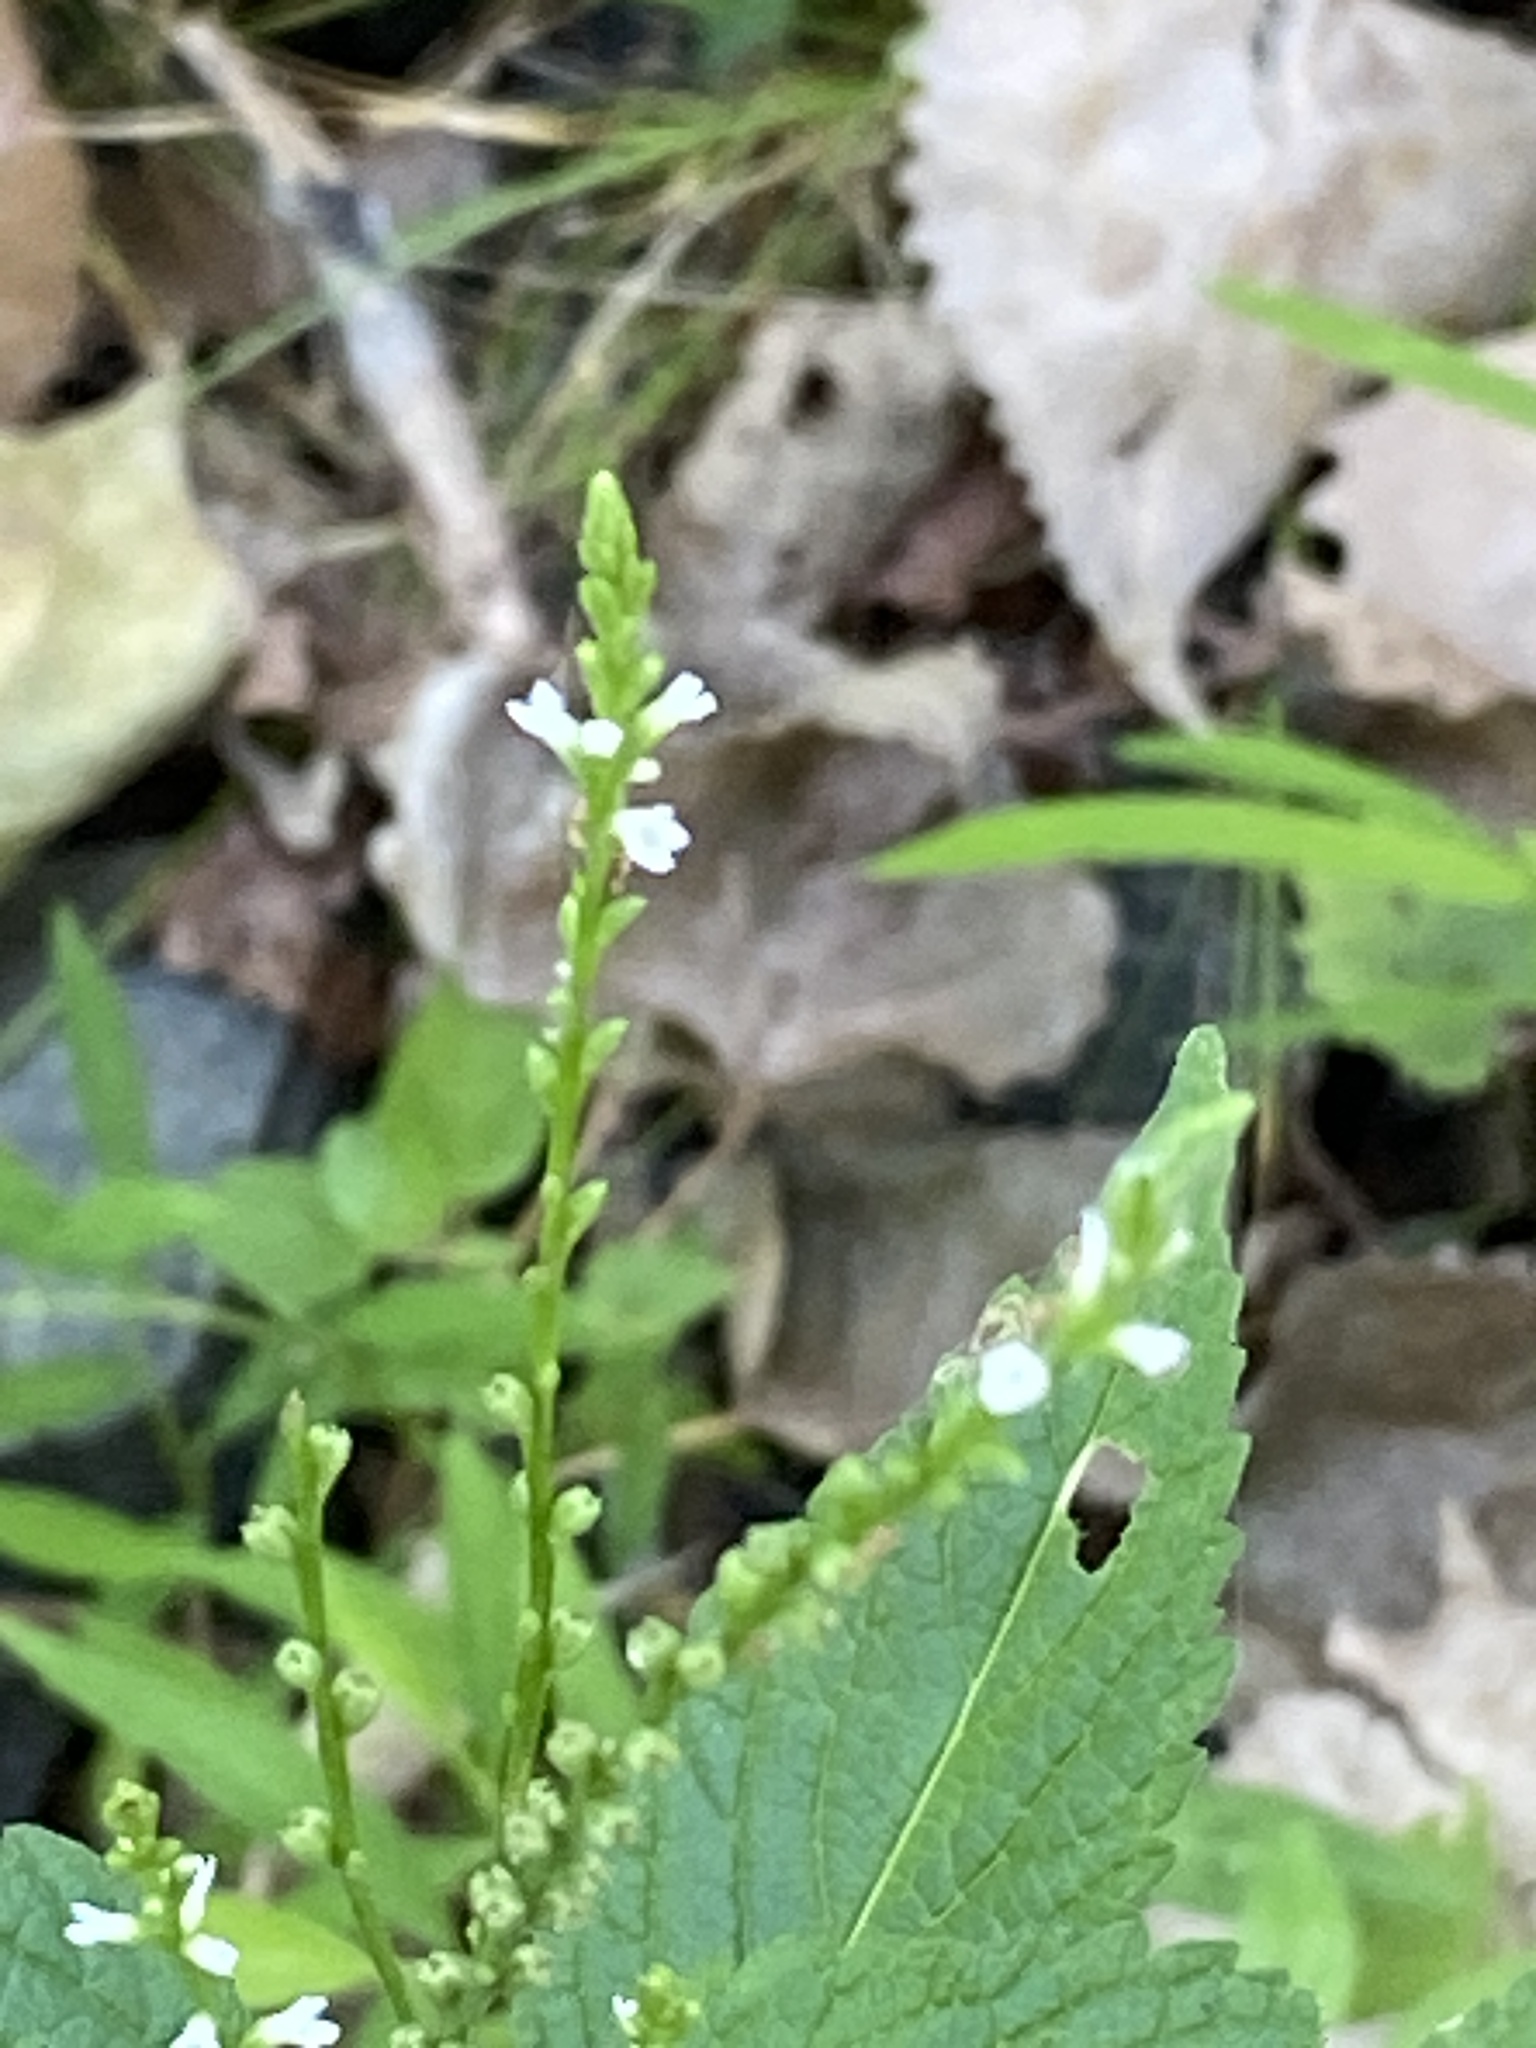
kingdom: Plantae
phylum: Tracheophyta
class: Magnoliopsida
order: Lamiales
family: Verbenaceae
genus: Verbena
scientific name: Verbena urticifolia
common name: Nettle-leaved vervain
